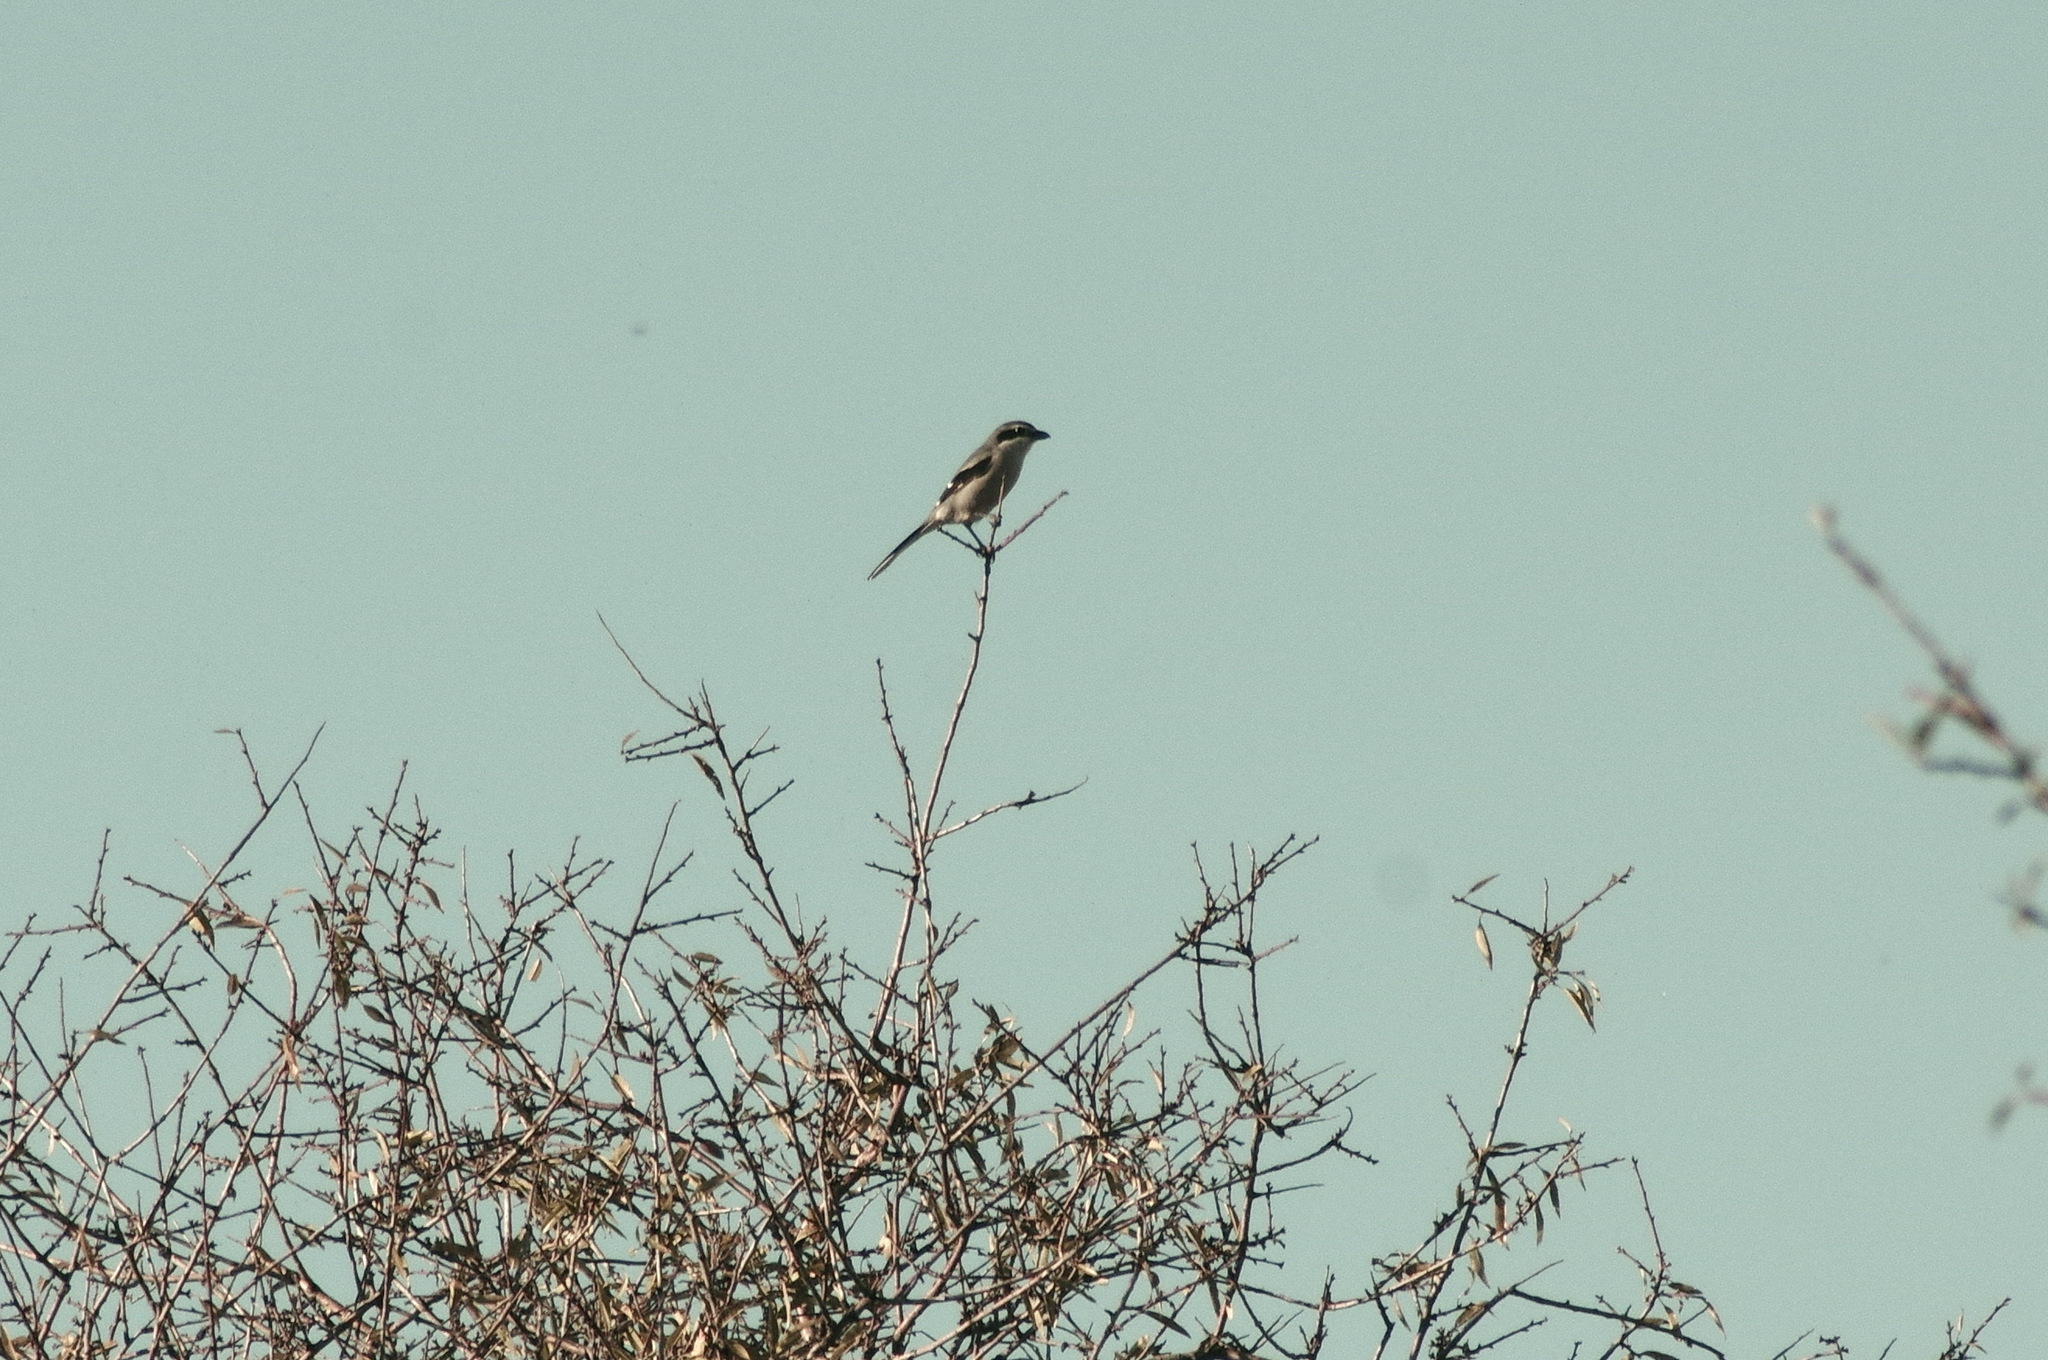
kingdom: Animalia
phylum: Chordata
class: Aves
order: Passeriformes
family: Laniidae
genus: Lanius
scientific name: Lanius meridionalis
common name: Iberian grey shrike
